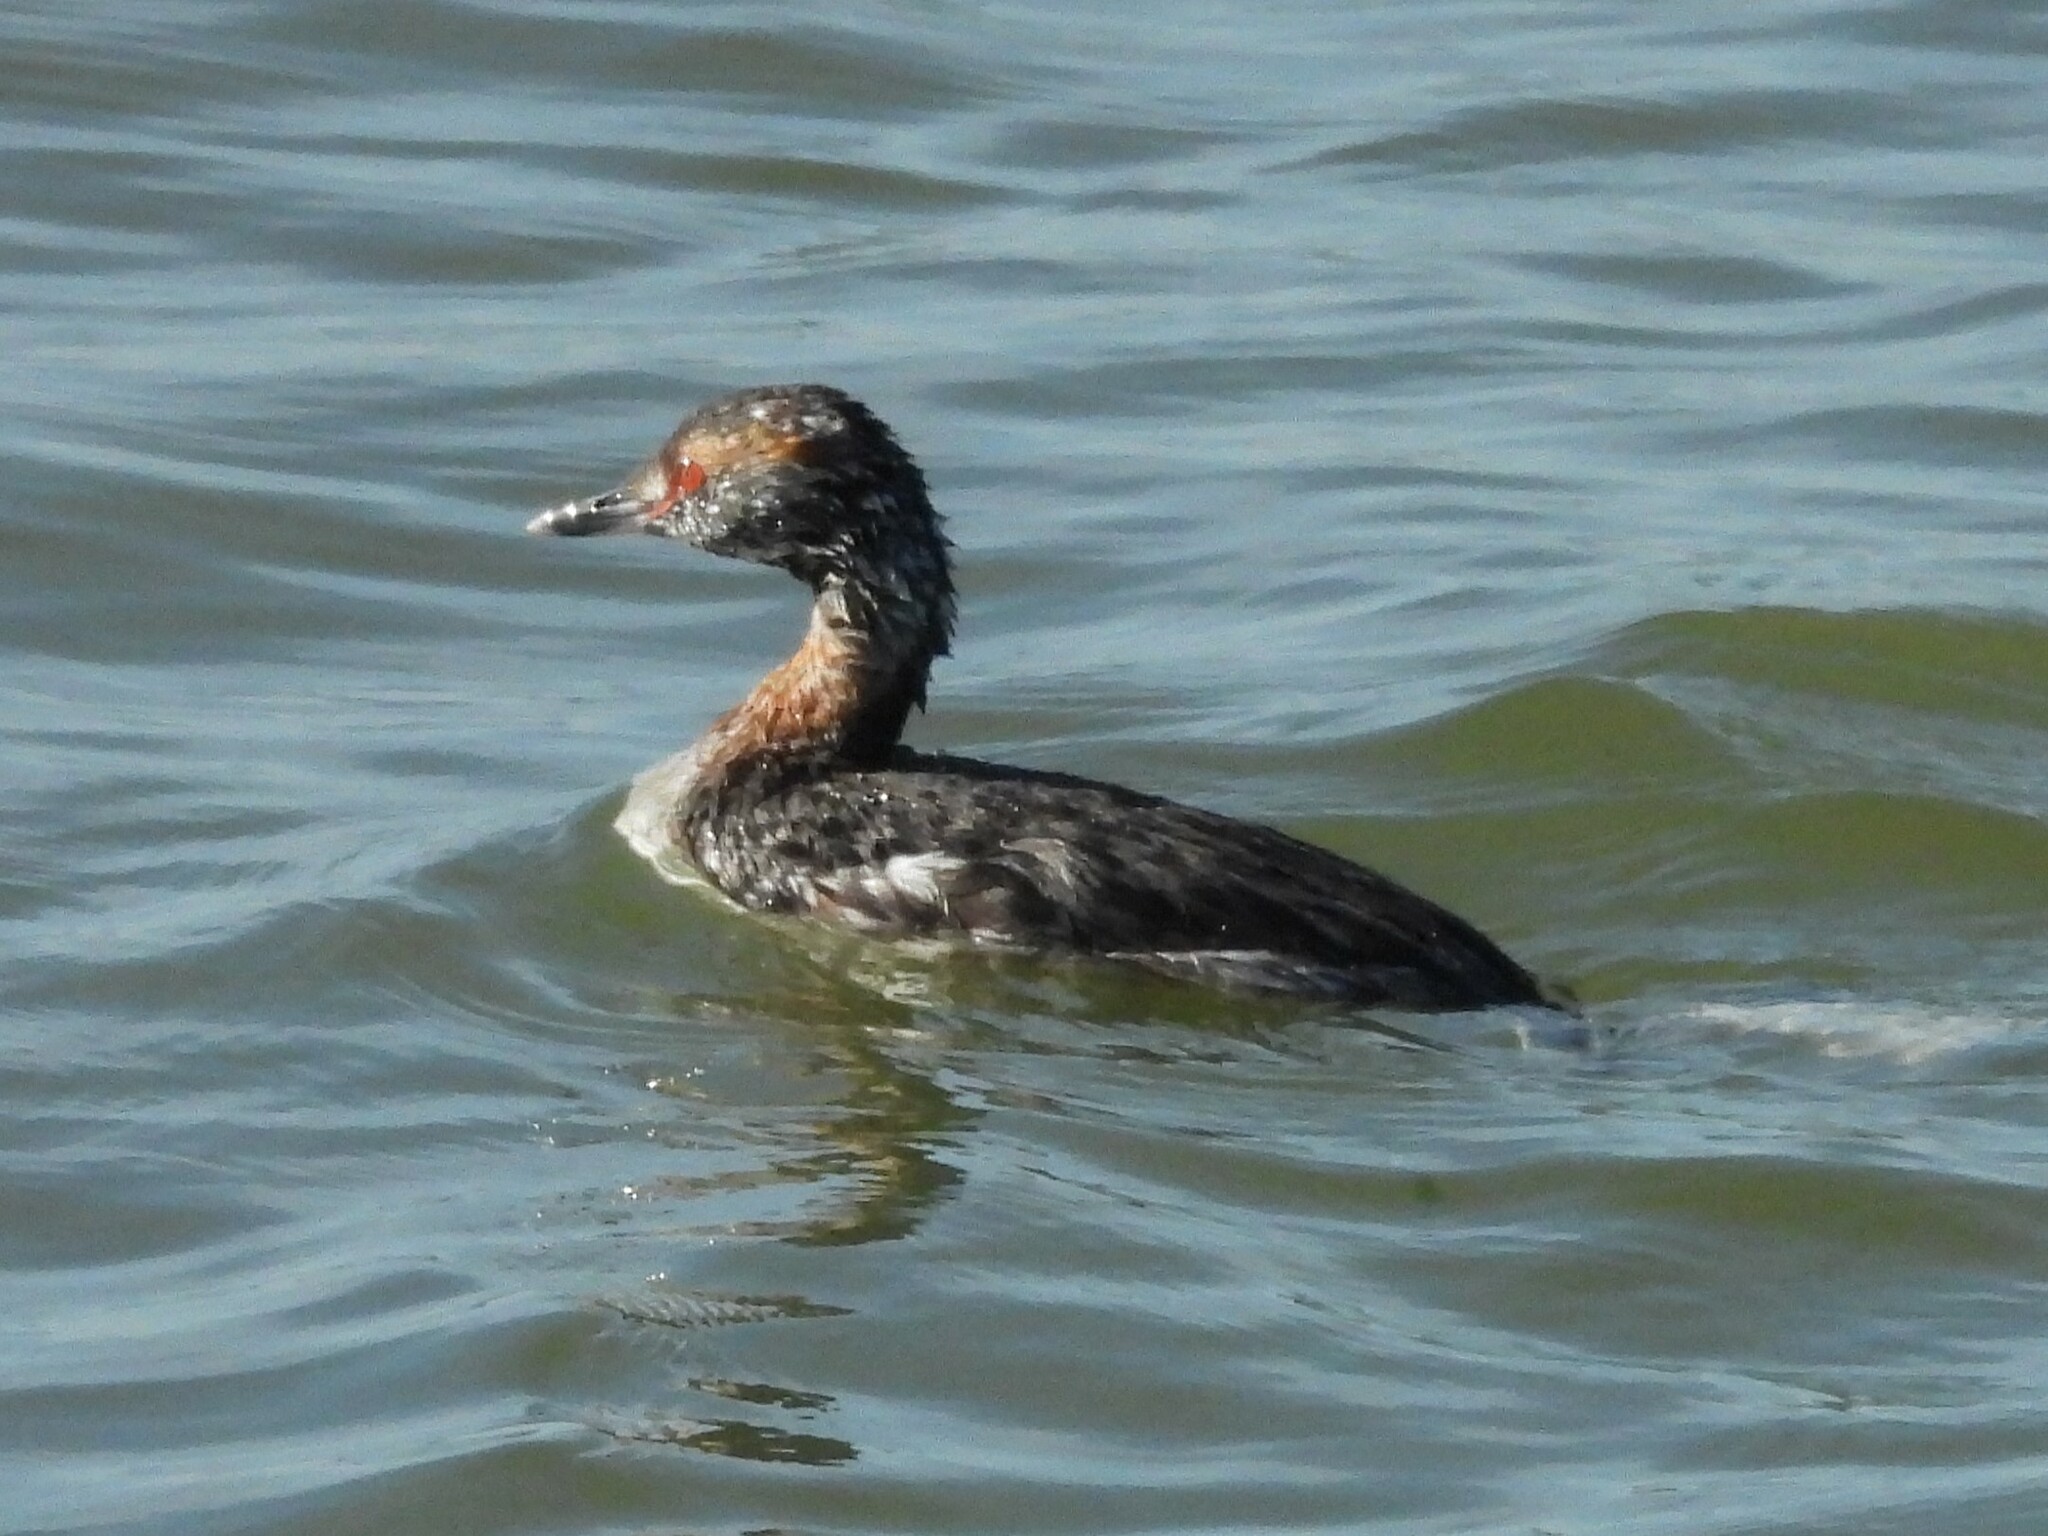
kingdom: Animalia
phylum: Chordata
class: Aves
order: Podicipediformes
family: Podicipedidae
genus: Podiceps
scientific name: Podiceps auritus
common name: Horned grebe
